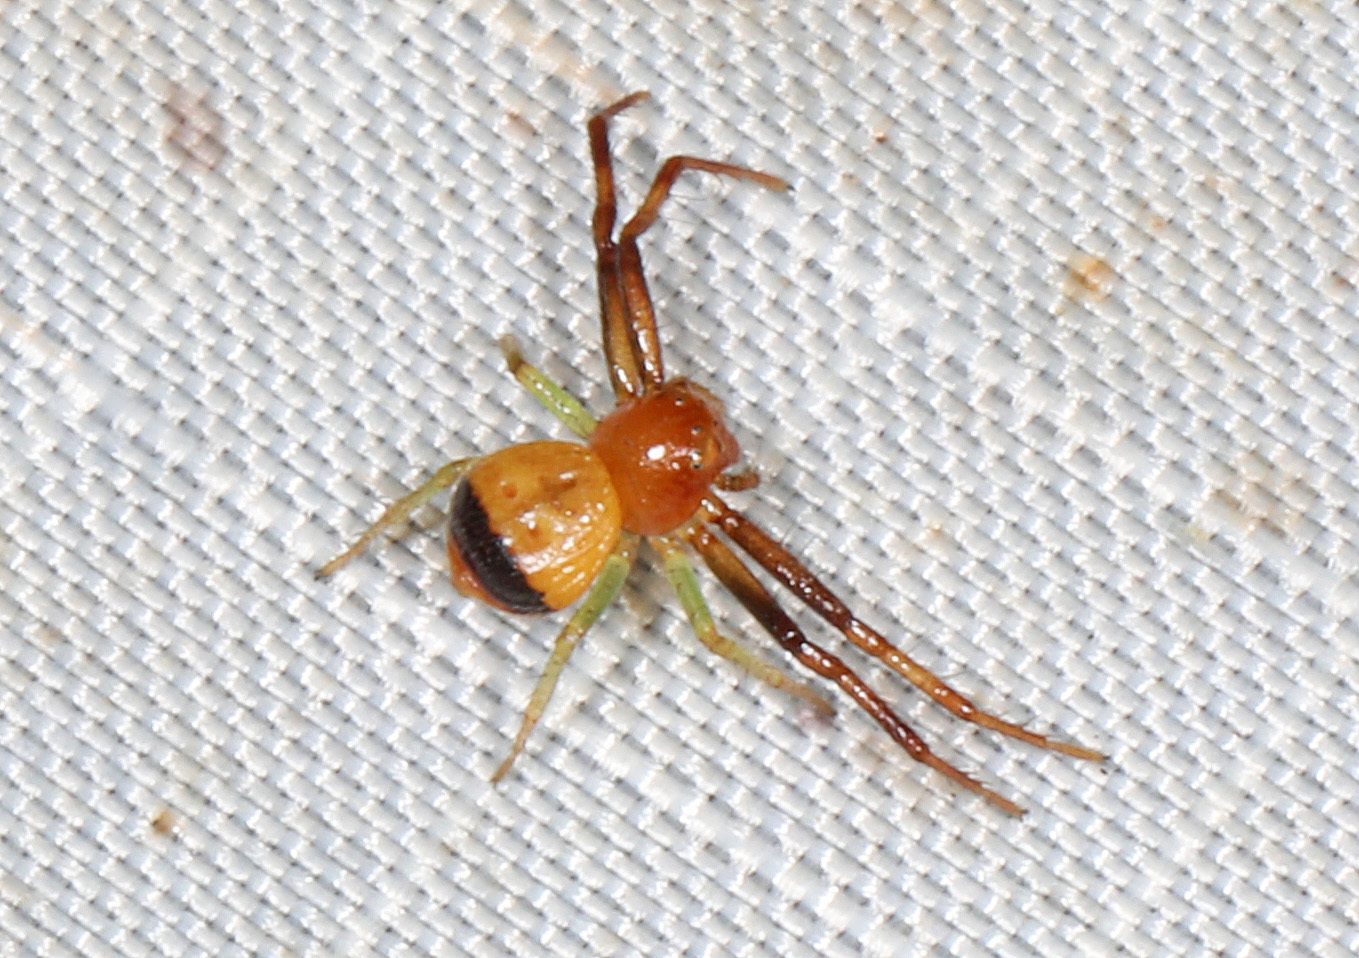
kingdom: Animalia
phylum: Arthropoda
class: Arachnida
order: Araneae
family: Thomisidae
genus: Synema
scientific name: Synema parvulum
